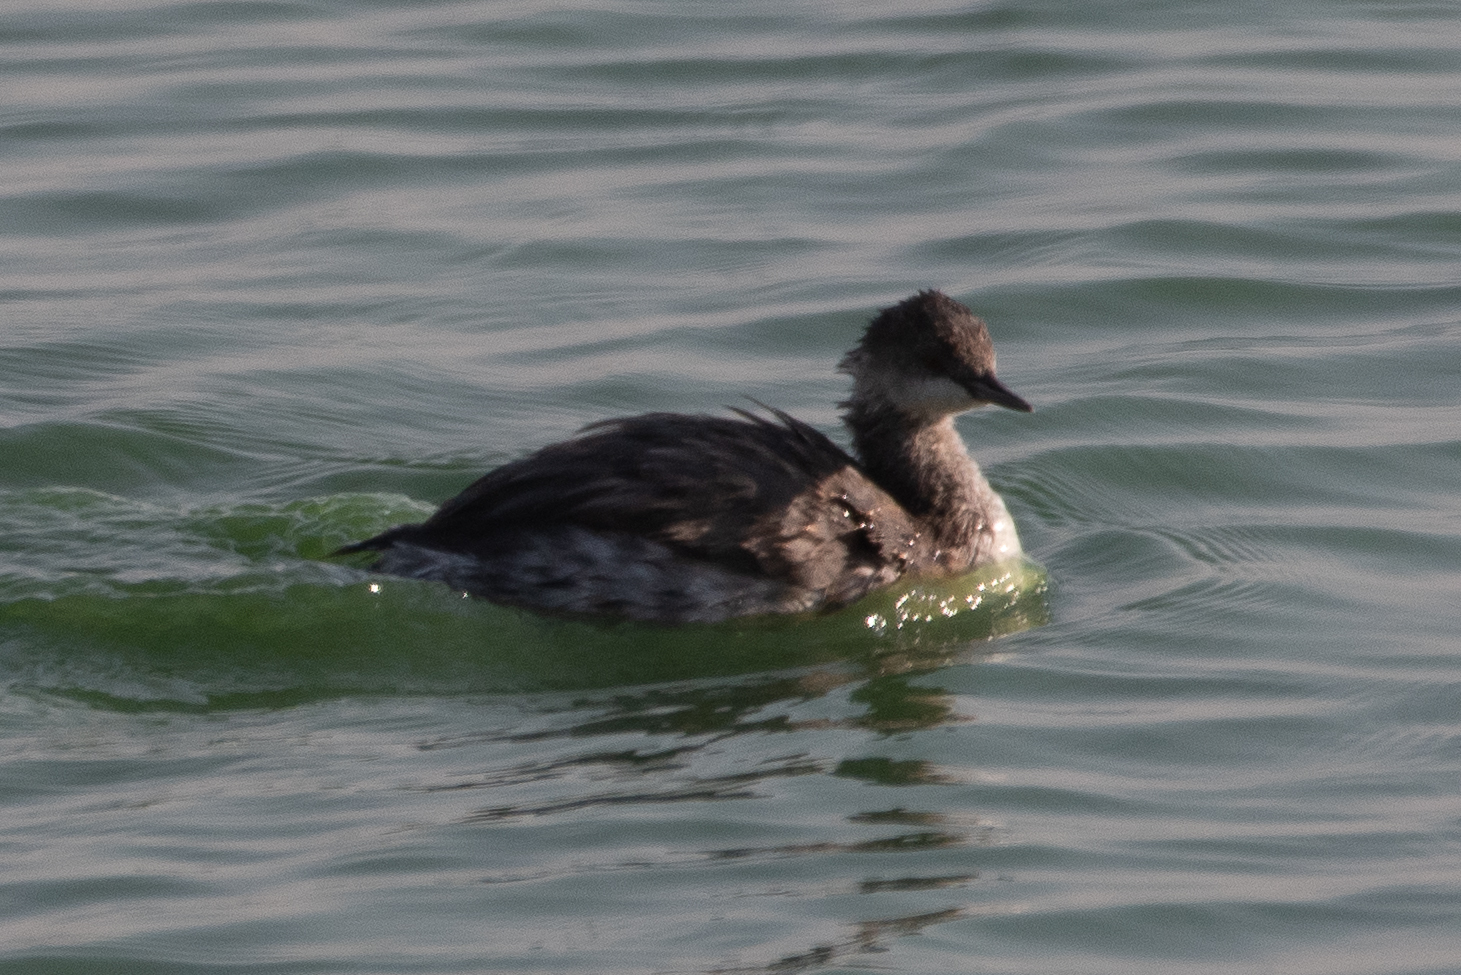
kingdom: Animalia
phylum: Chordata
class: Aves
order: Podicipediformes
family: Podicipedidae
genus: Podiceps
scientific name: Podiceps nigricollis
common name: Black-necked grebe
